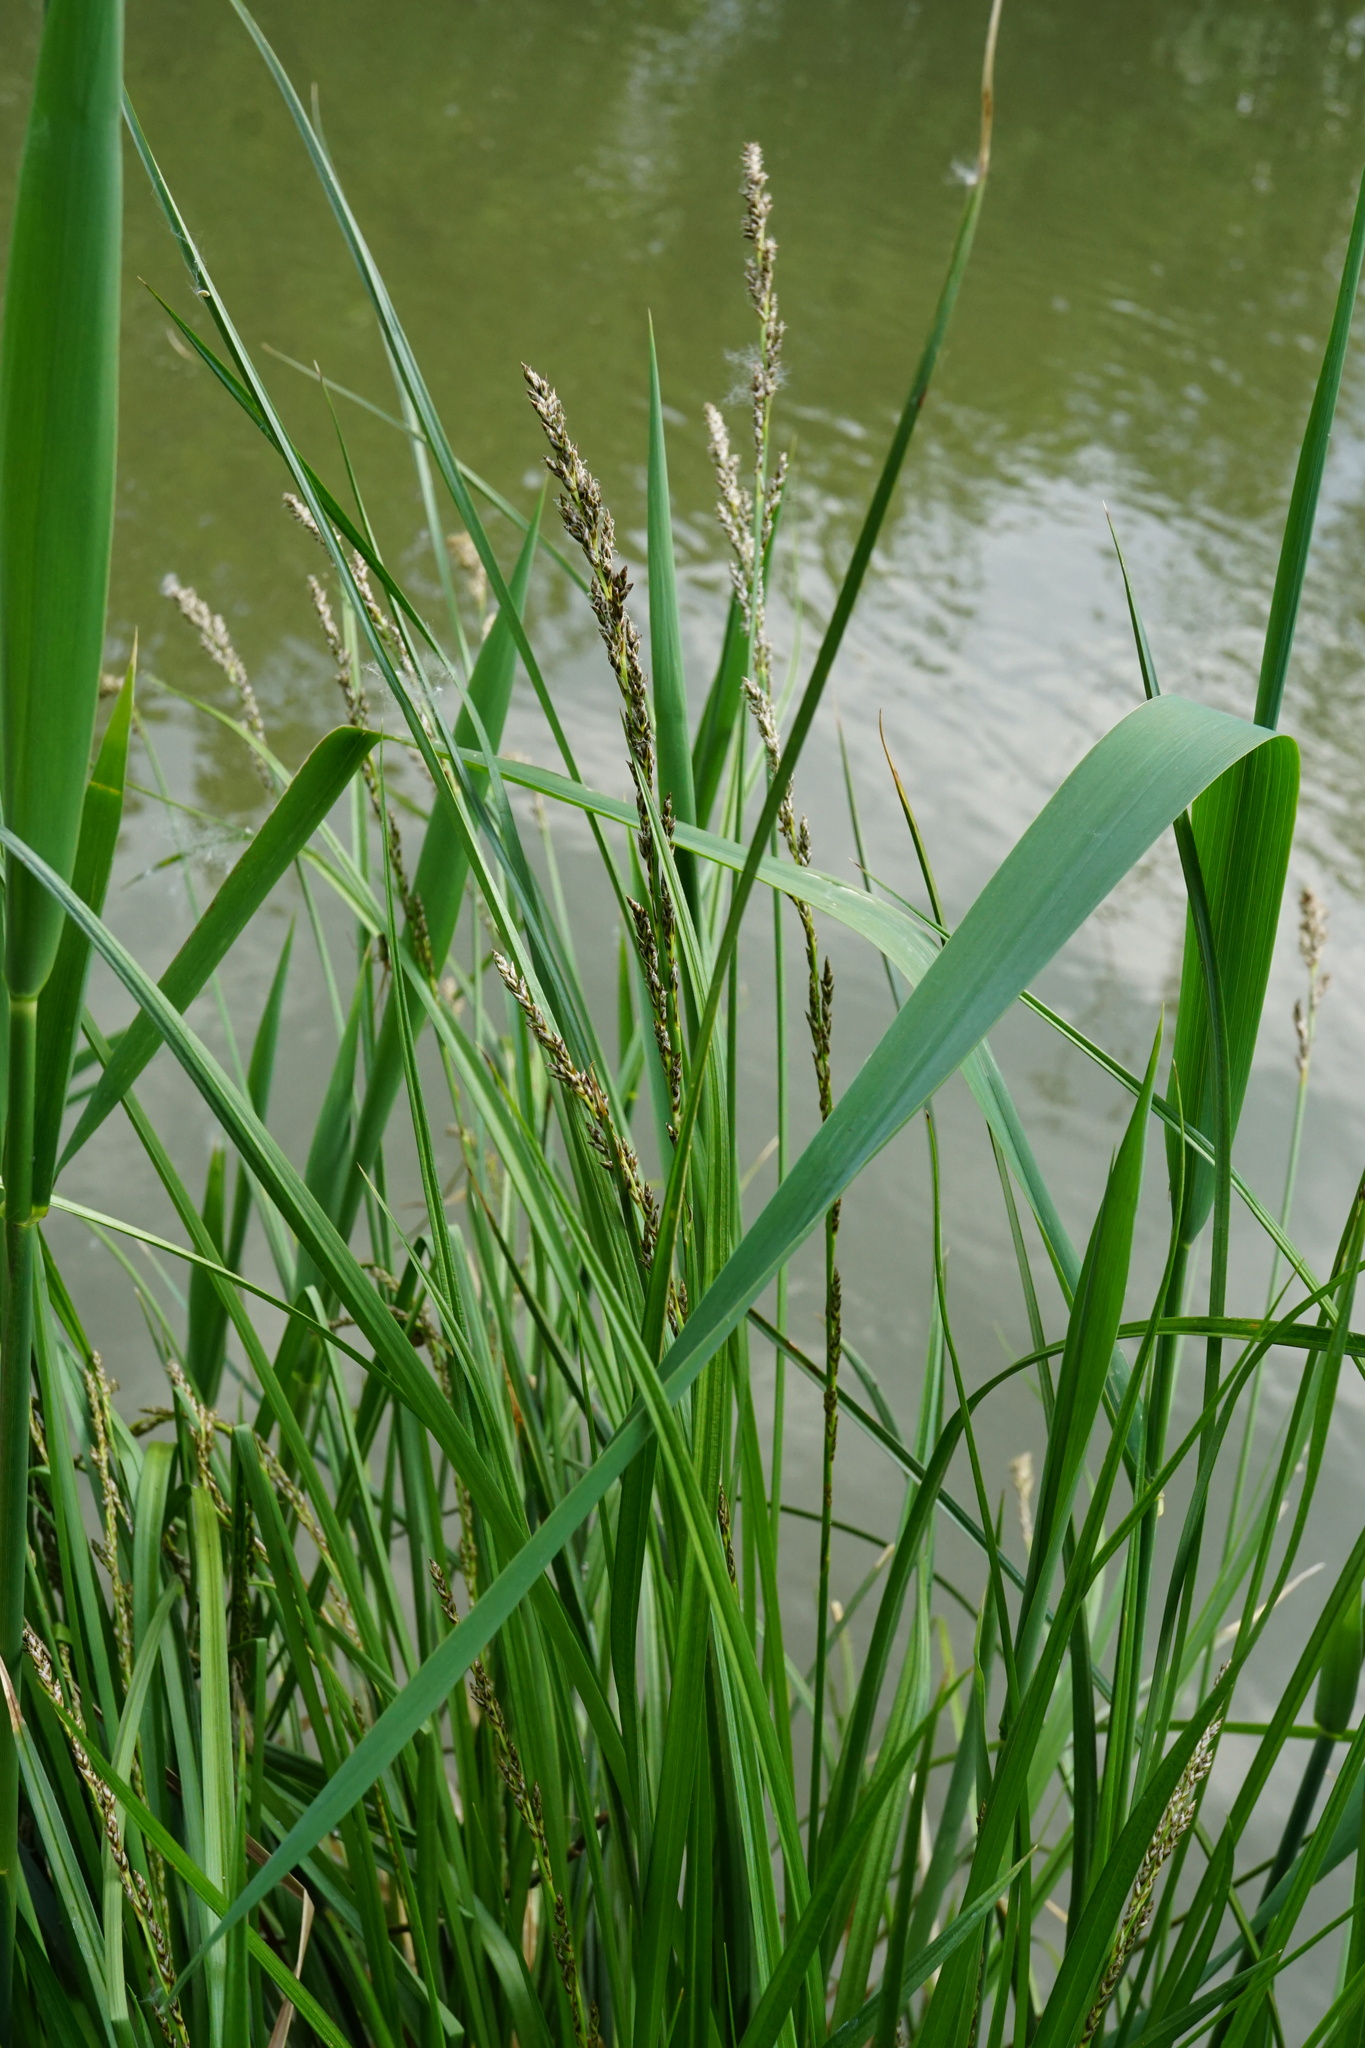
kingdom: Plantae
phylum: Tracheophyta
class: Liliopsida
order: Poales
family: Cyperaceae
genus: Carex
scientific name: Carex paniculata
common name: Greater tussock-sedge
